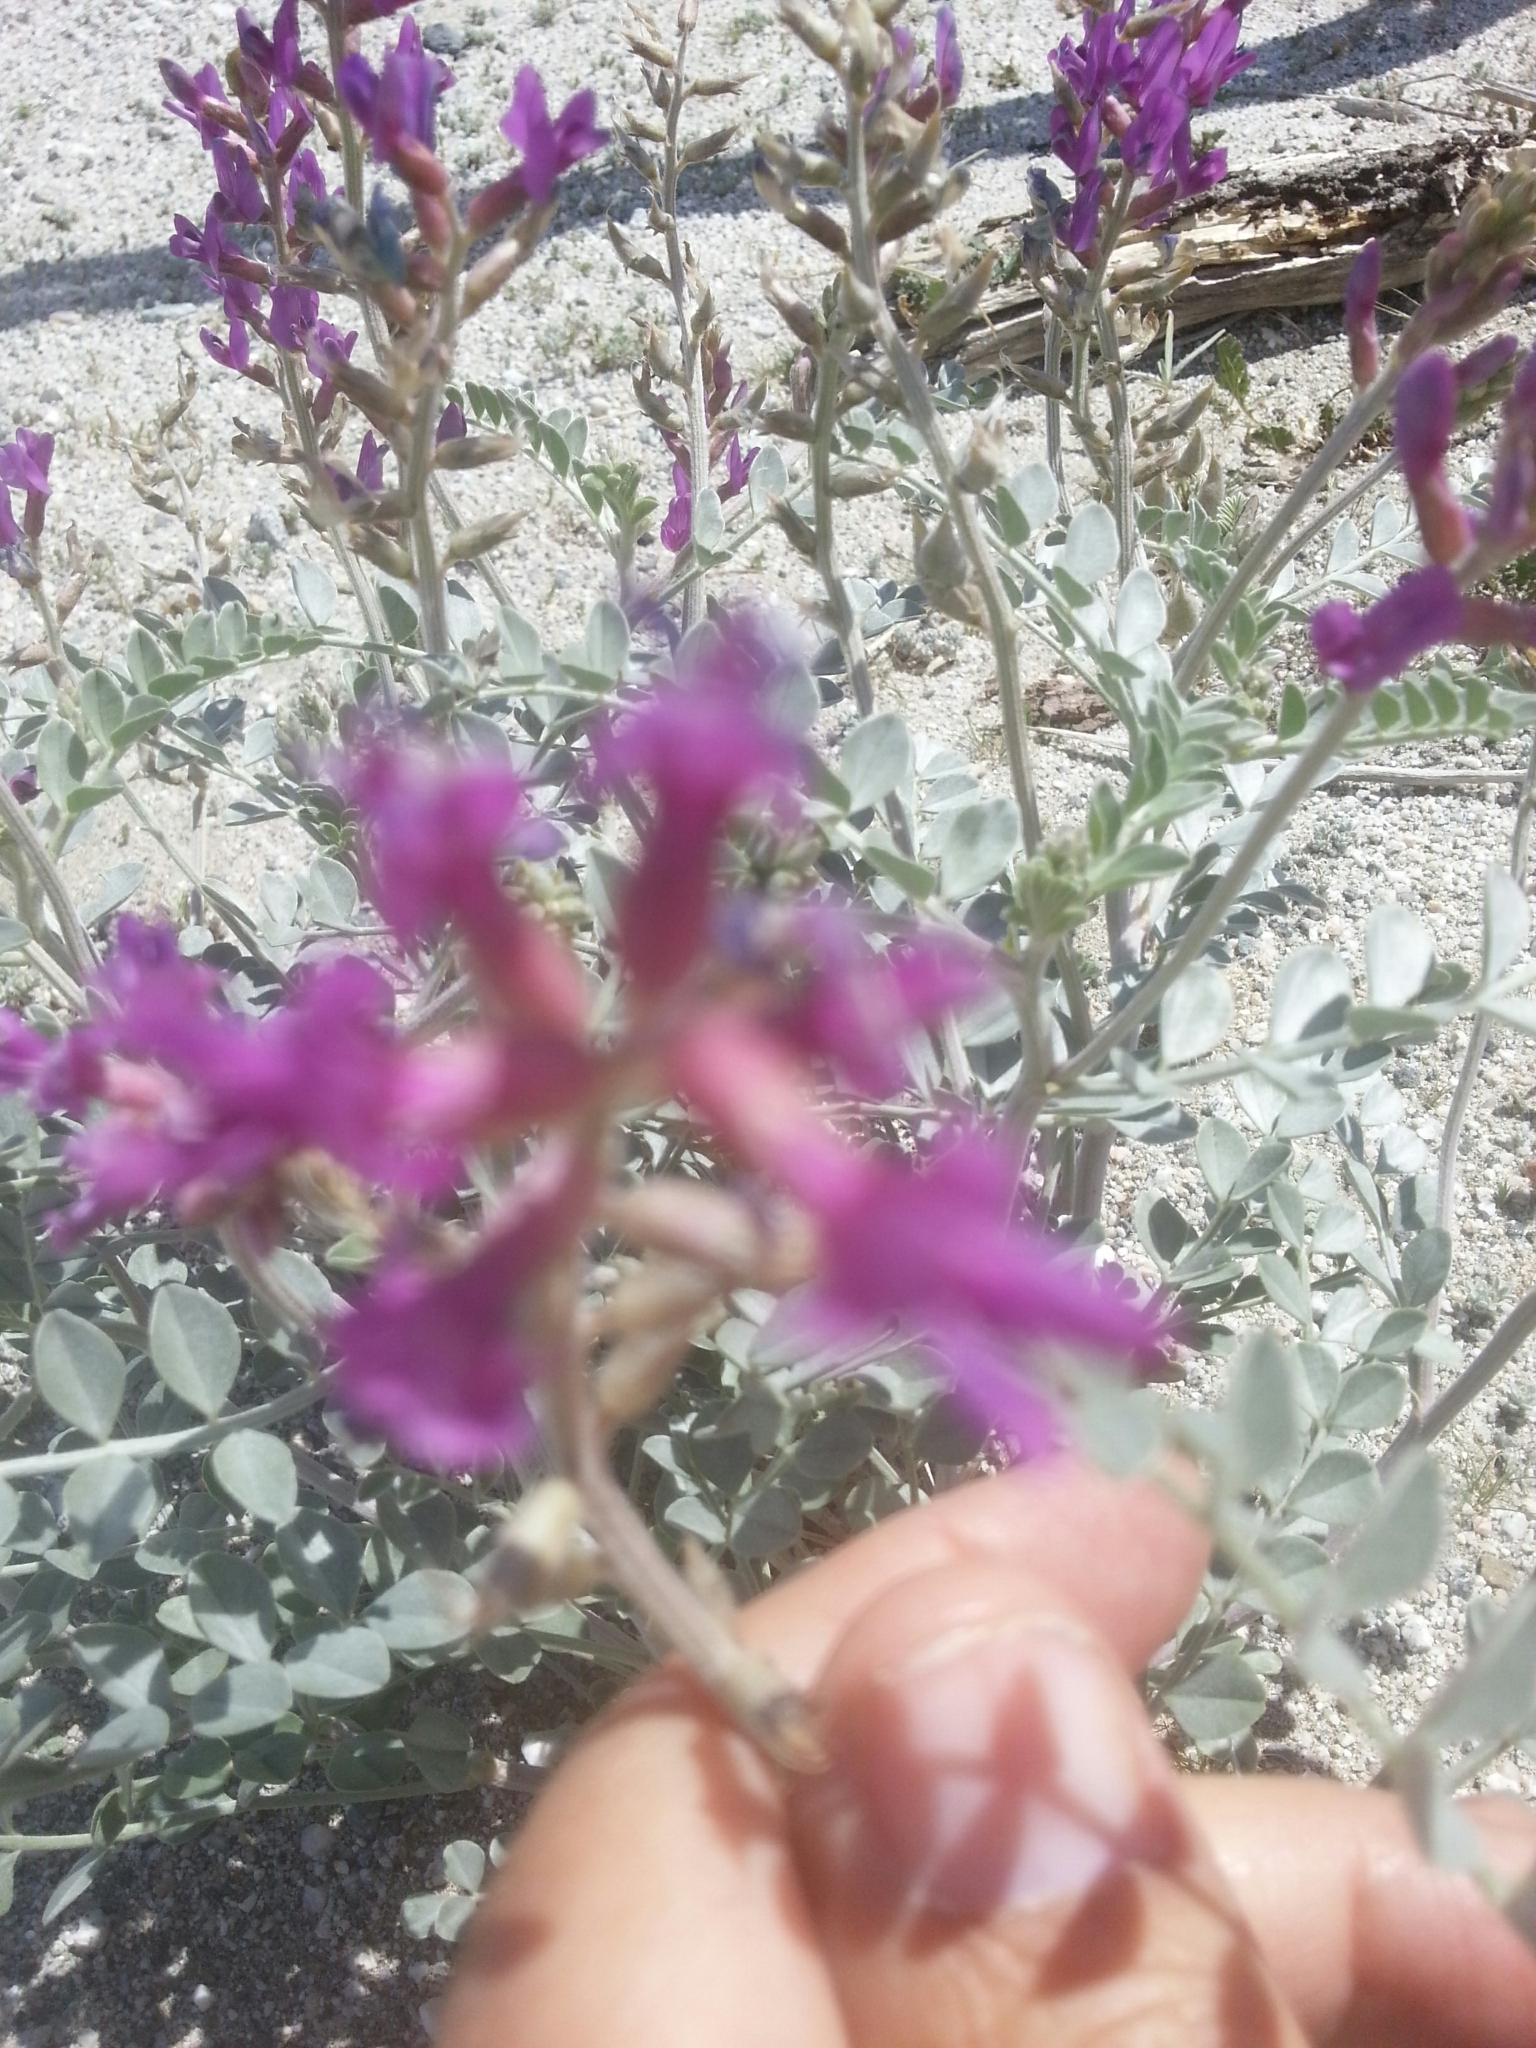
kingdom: Plantae
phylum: Tracheophyta
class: Magnoliopsida
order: Fabales
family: Fabaceae
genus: Astragalus
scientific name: Astragalus lentiginosus
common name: Freckled milkvetch
